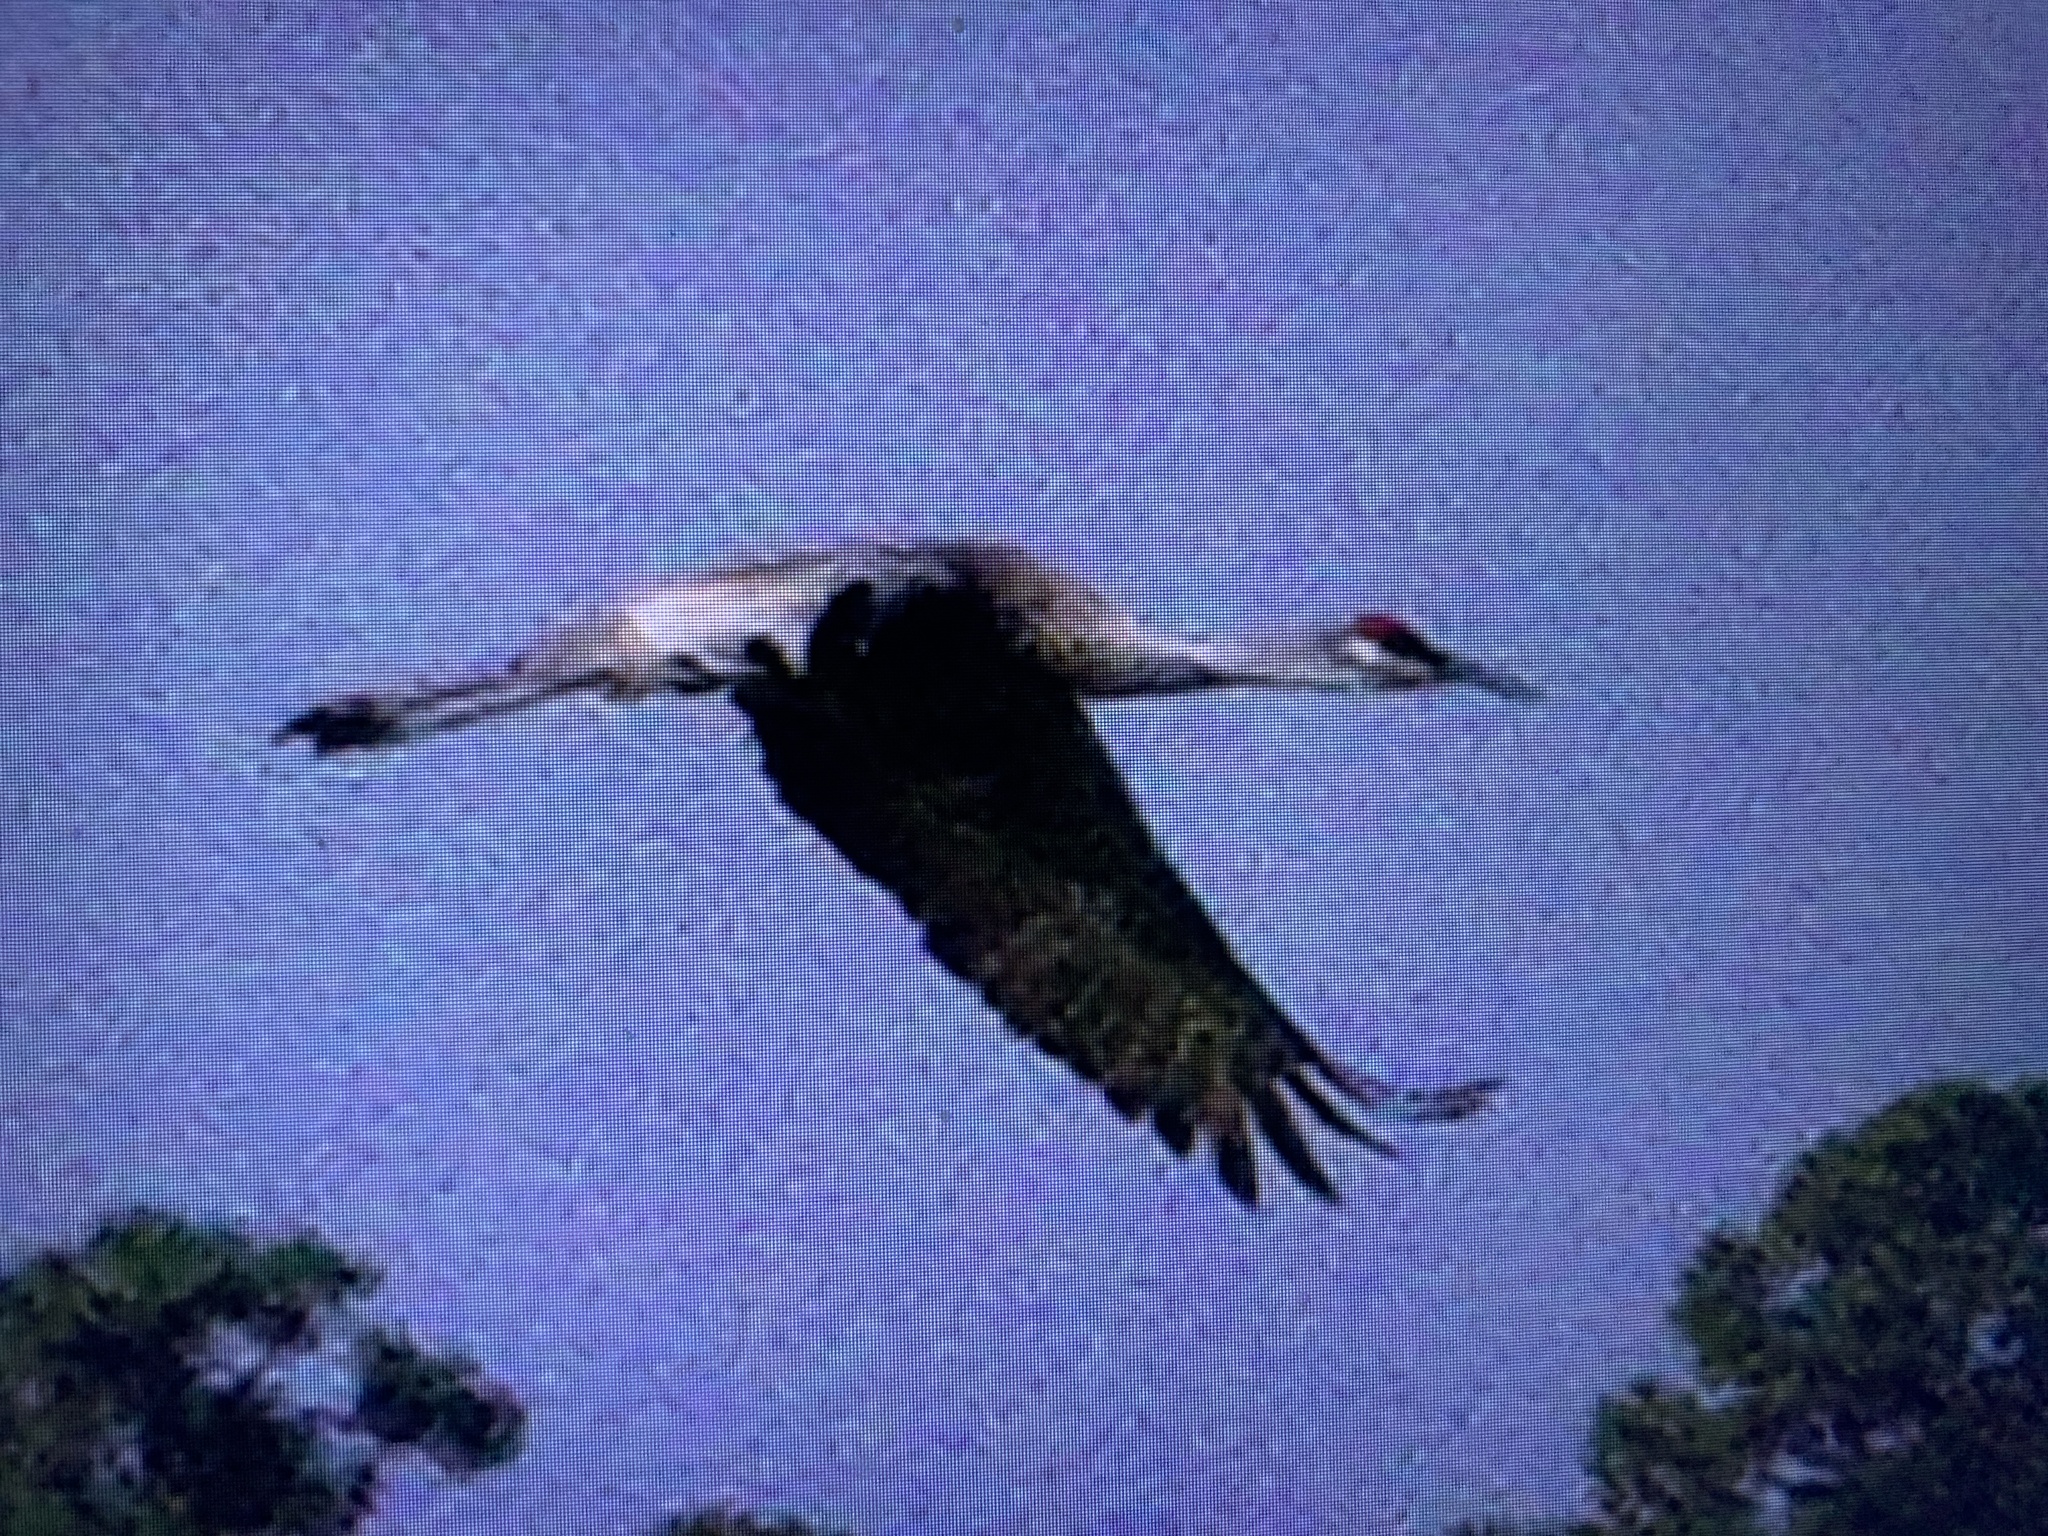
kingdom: Animalia
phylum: Chordata
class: Aves
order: Gruiformes
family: Gruidae
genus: Grus
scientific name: Grus canadensis
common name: Sandhill crane
